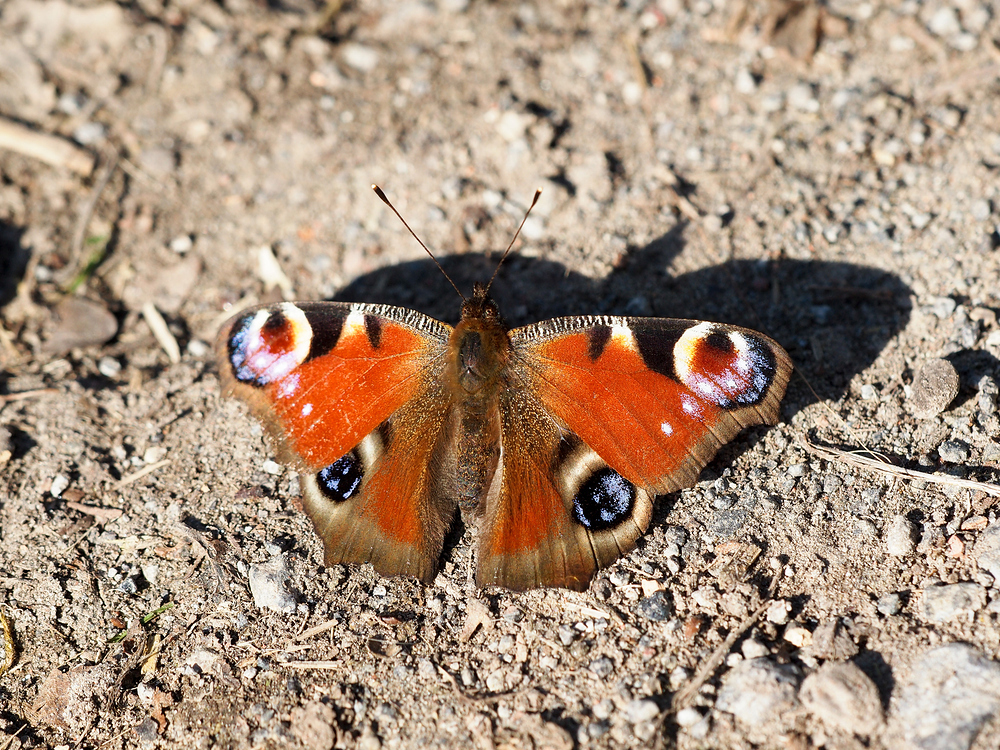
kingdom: Animalia
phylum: Arthropoda
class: Insecta
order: Lepidoptera
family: Nymphalidae
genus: Aglais
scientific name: Aglais io
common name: Peacock
